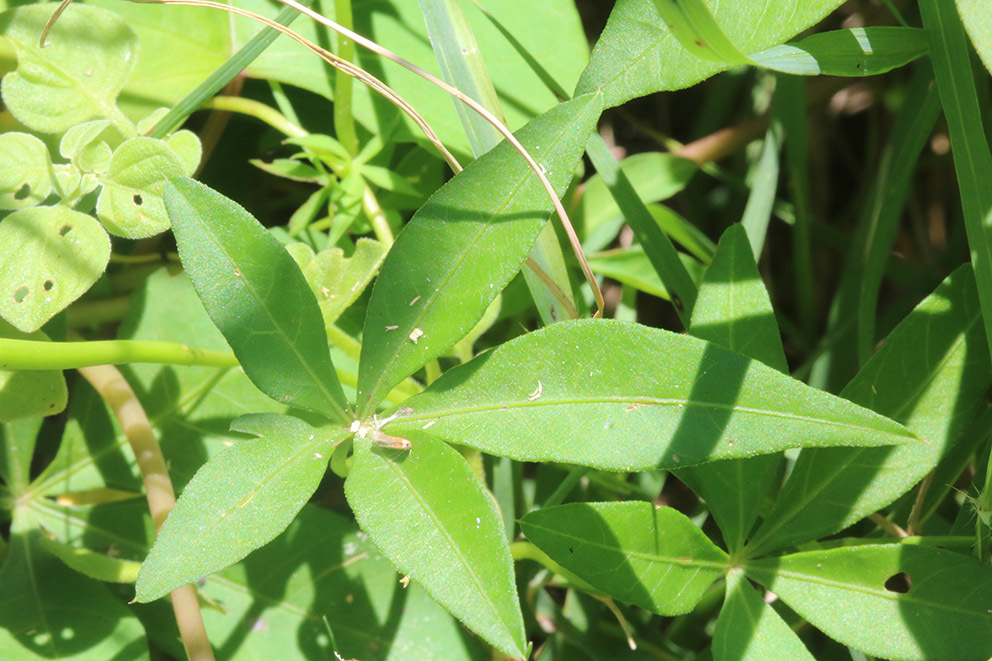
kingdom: Plantae
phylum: Tracheophyta
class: Magnoliopsida
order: Solanales
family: Convolvulaceae
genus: Ipomoea
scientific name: Ipomoea cairica
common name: Mile a minute vine
